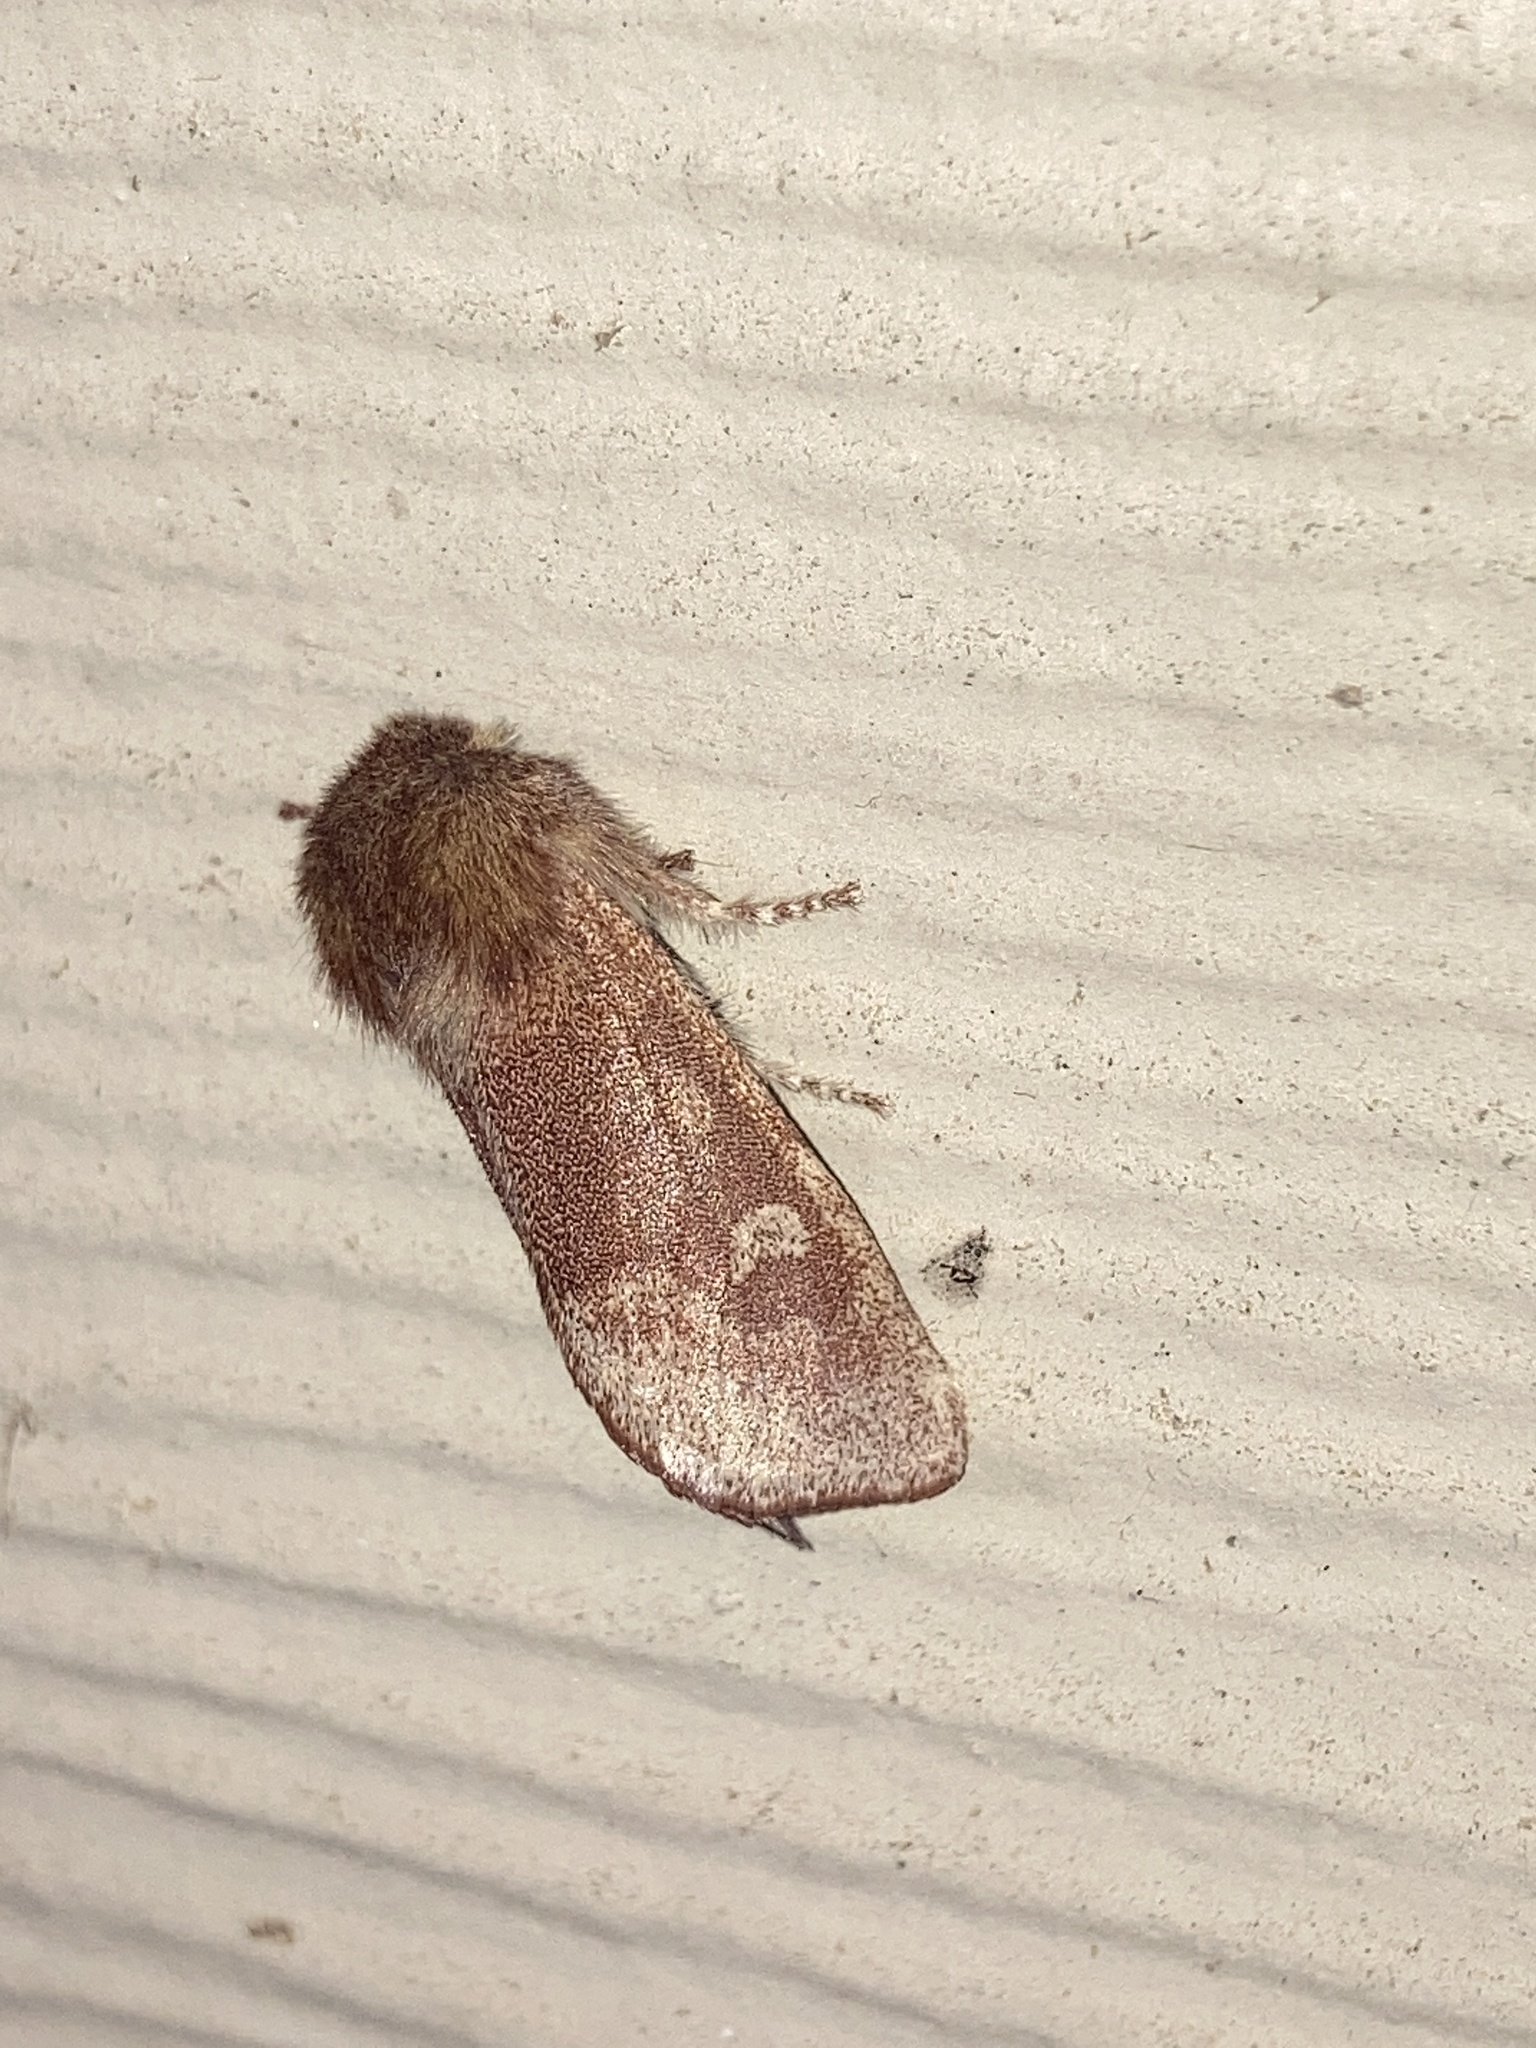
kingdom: Animalia
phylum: Arthropoda
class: Insecta
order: Lepidoptera
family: Noctuidae
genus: Psaphida
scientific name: Psaphida styracis
